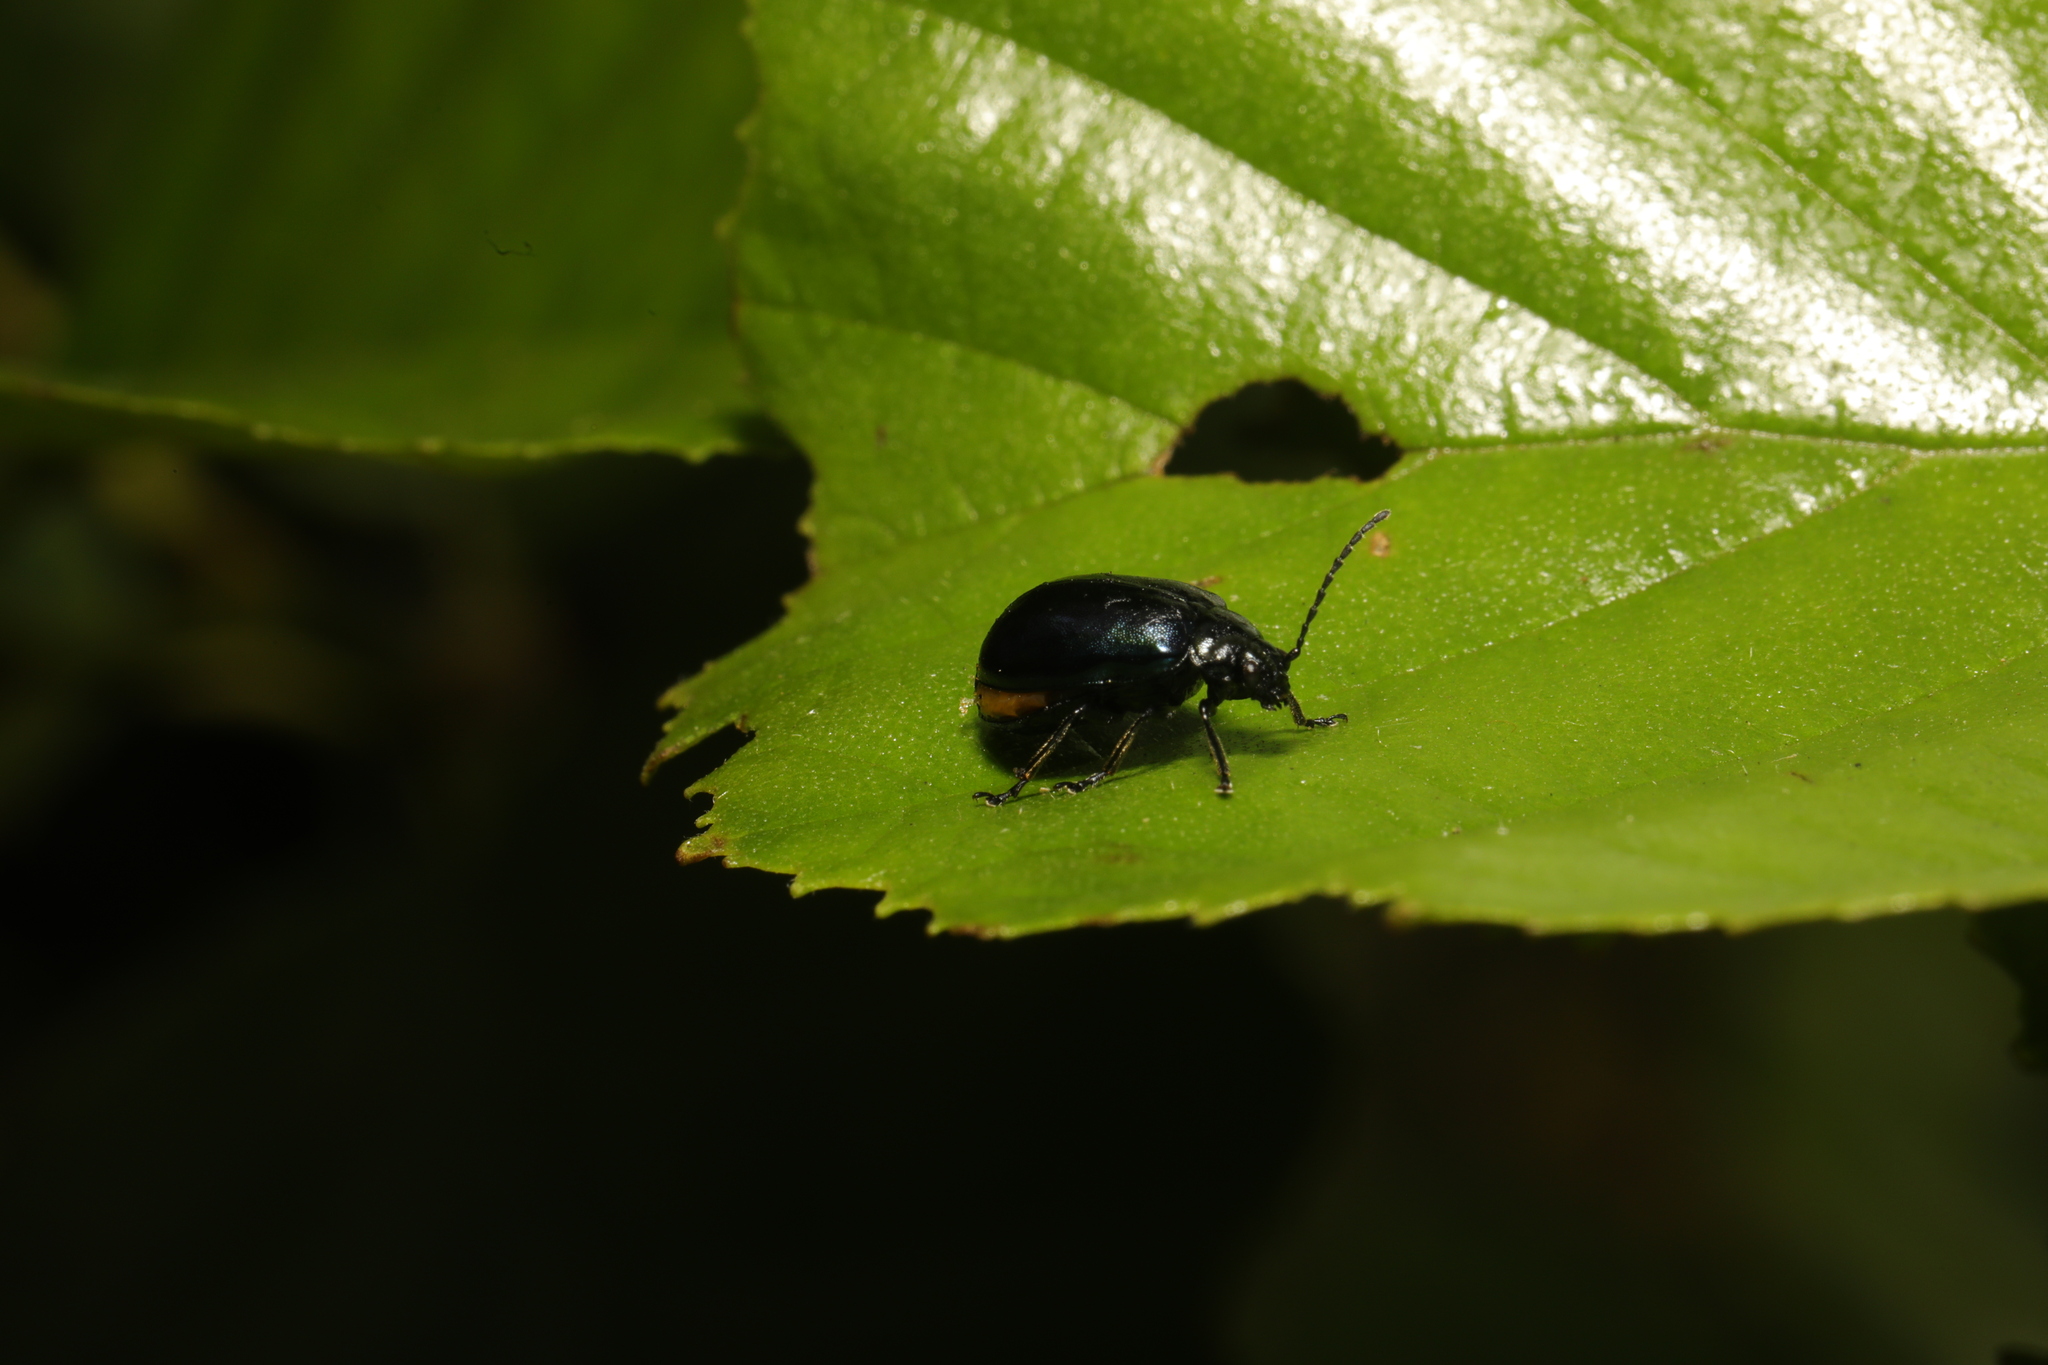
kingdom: Animalia
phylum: Arthropoda
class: Insecta
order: Coleoptera
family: Chrysomelidae
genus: Agelastica
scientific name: Agelastica alni
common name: Alder leaf beetle
